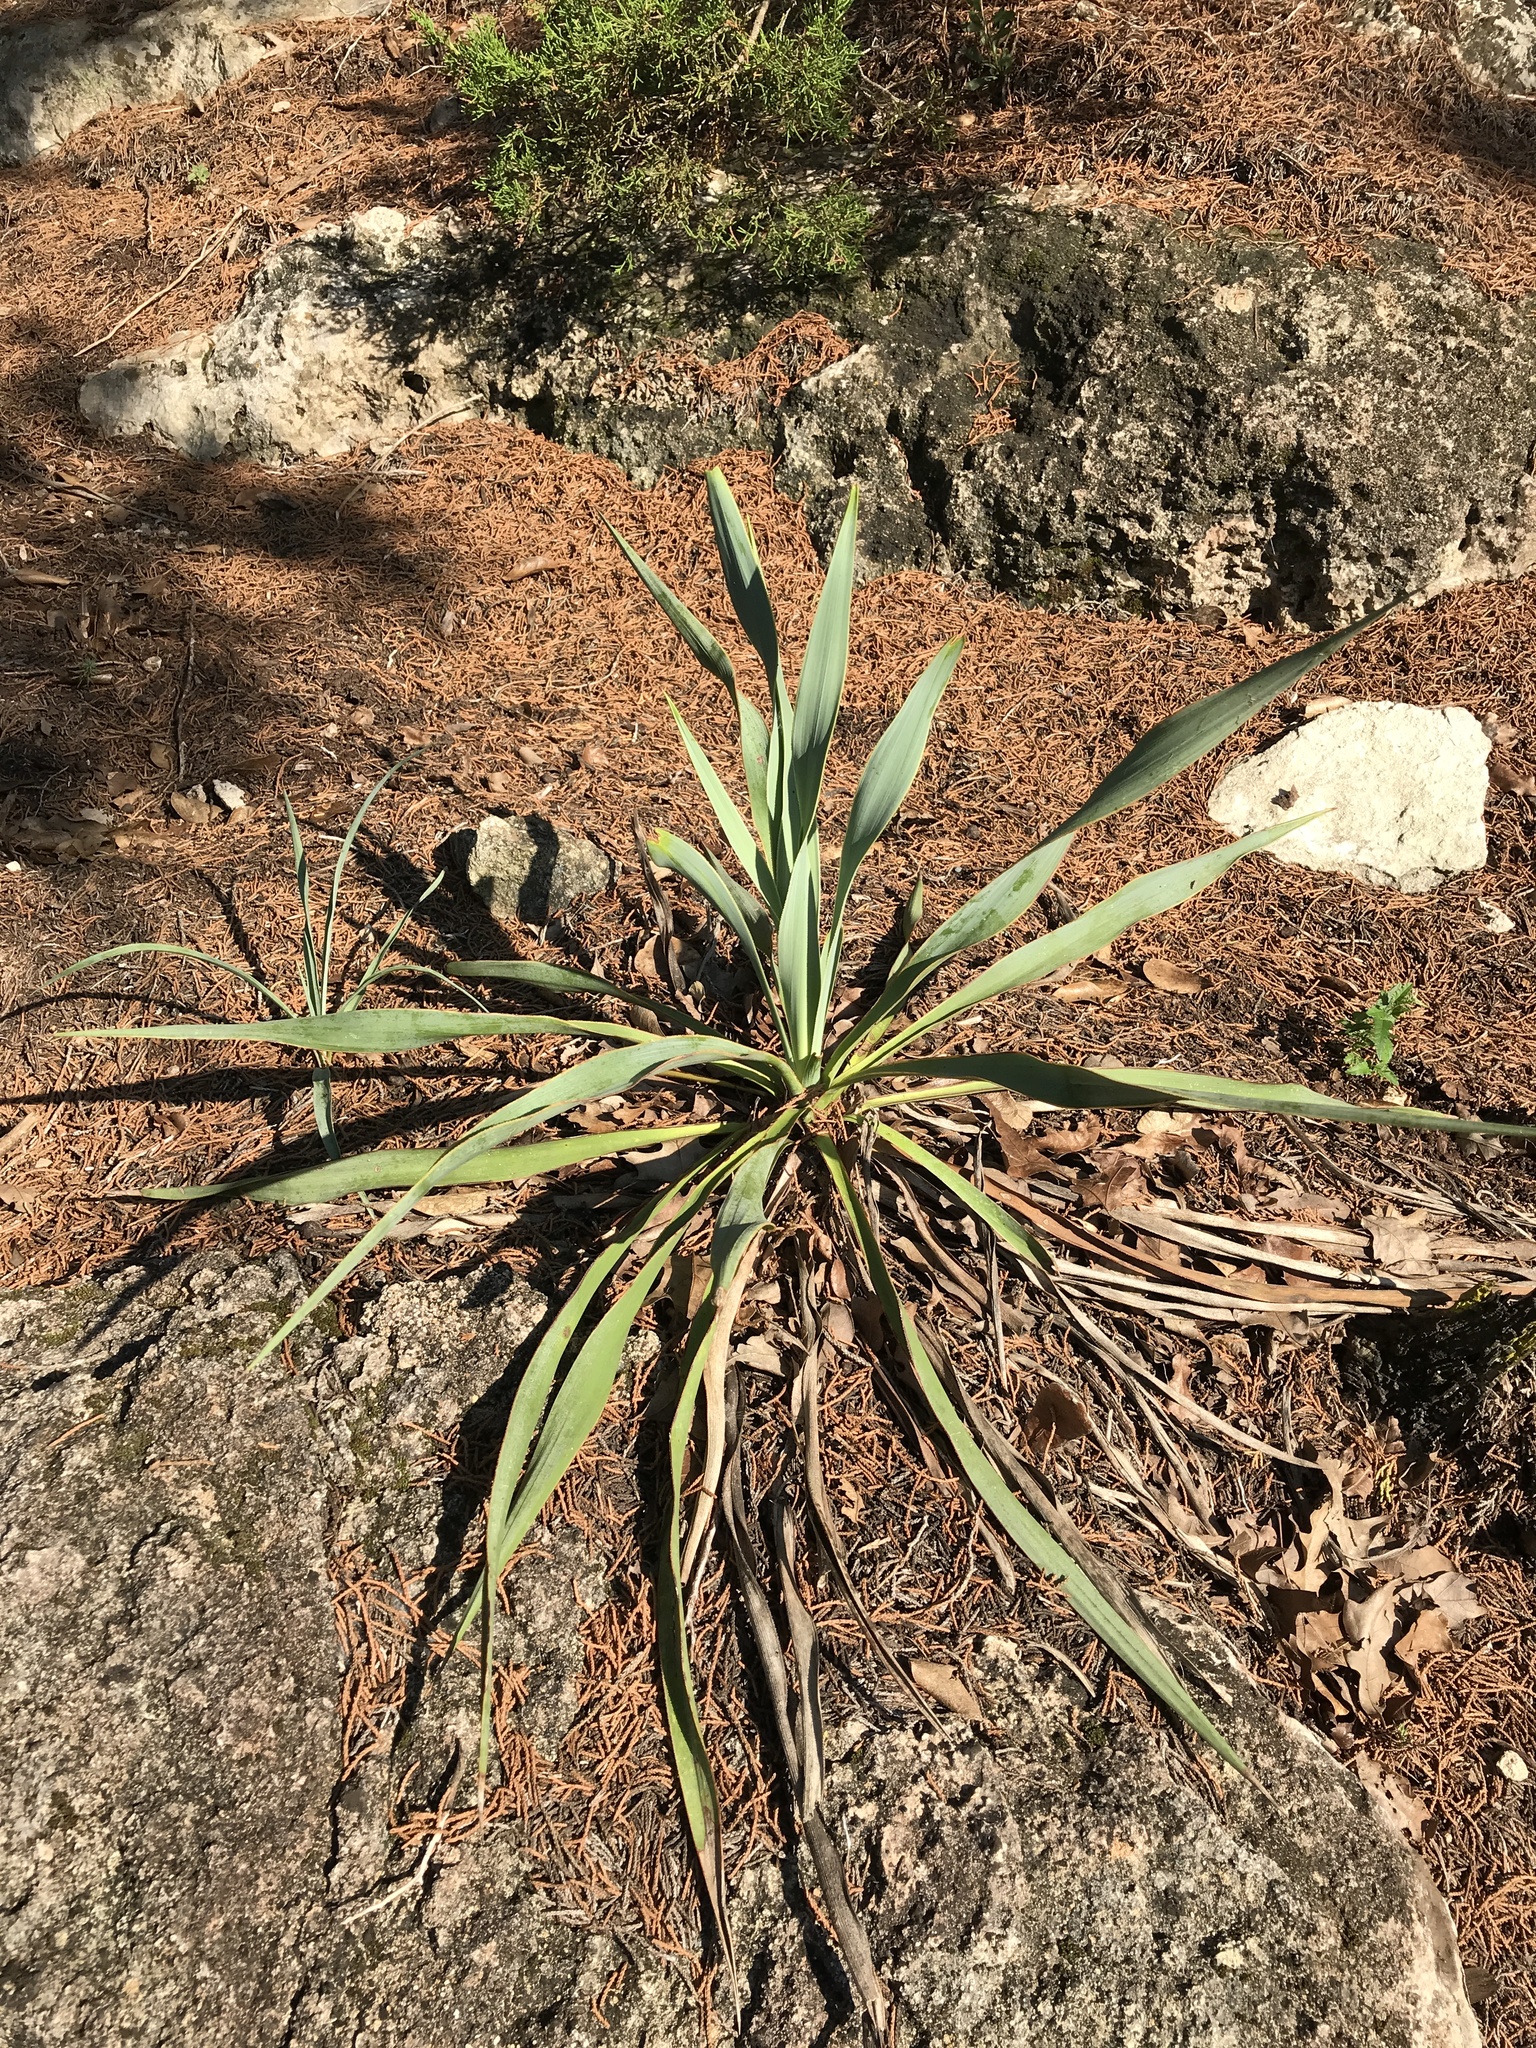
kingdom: Plantae
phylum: Tracheophyta
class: Liliopsida
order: Asparagales
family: Asparagaceae
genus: Yucca
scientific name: Yucca rupicola
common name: Twisted-leaf spanish-dagger
